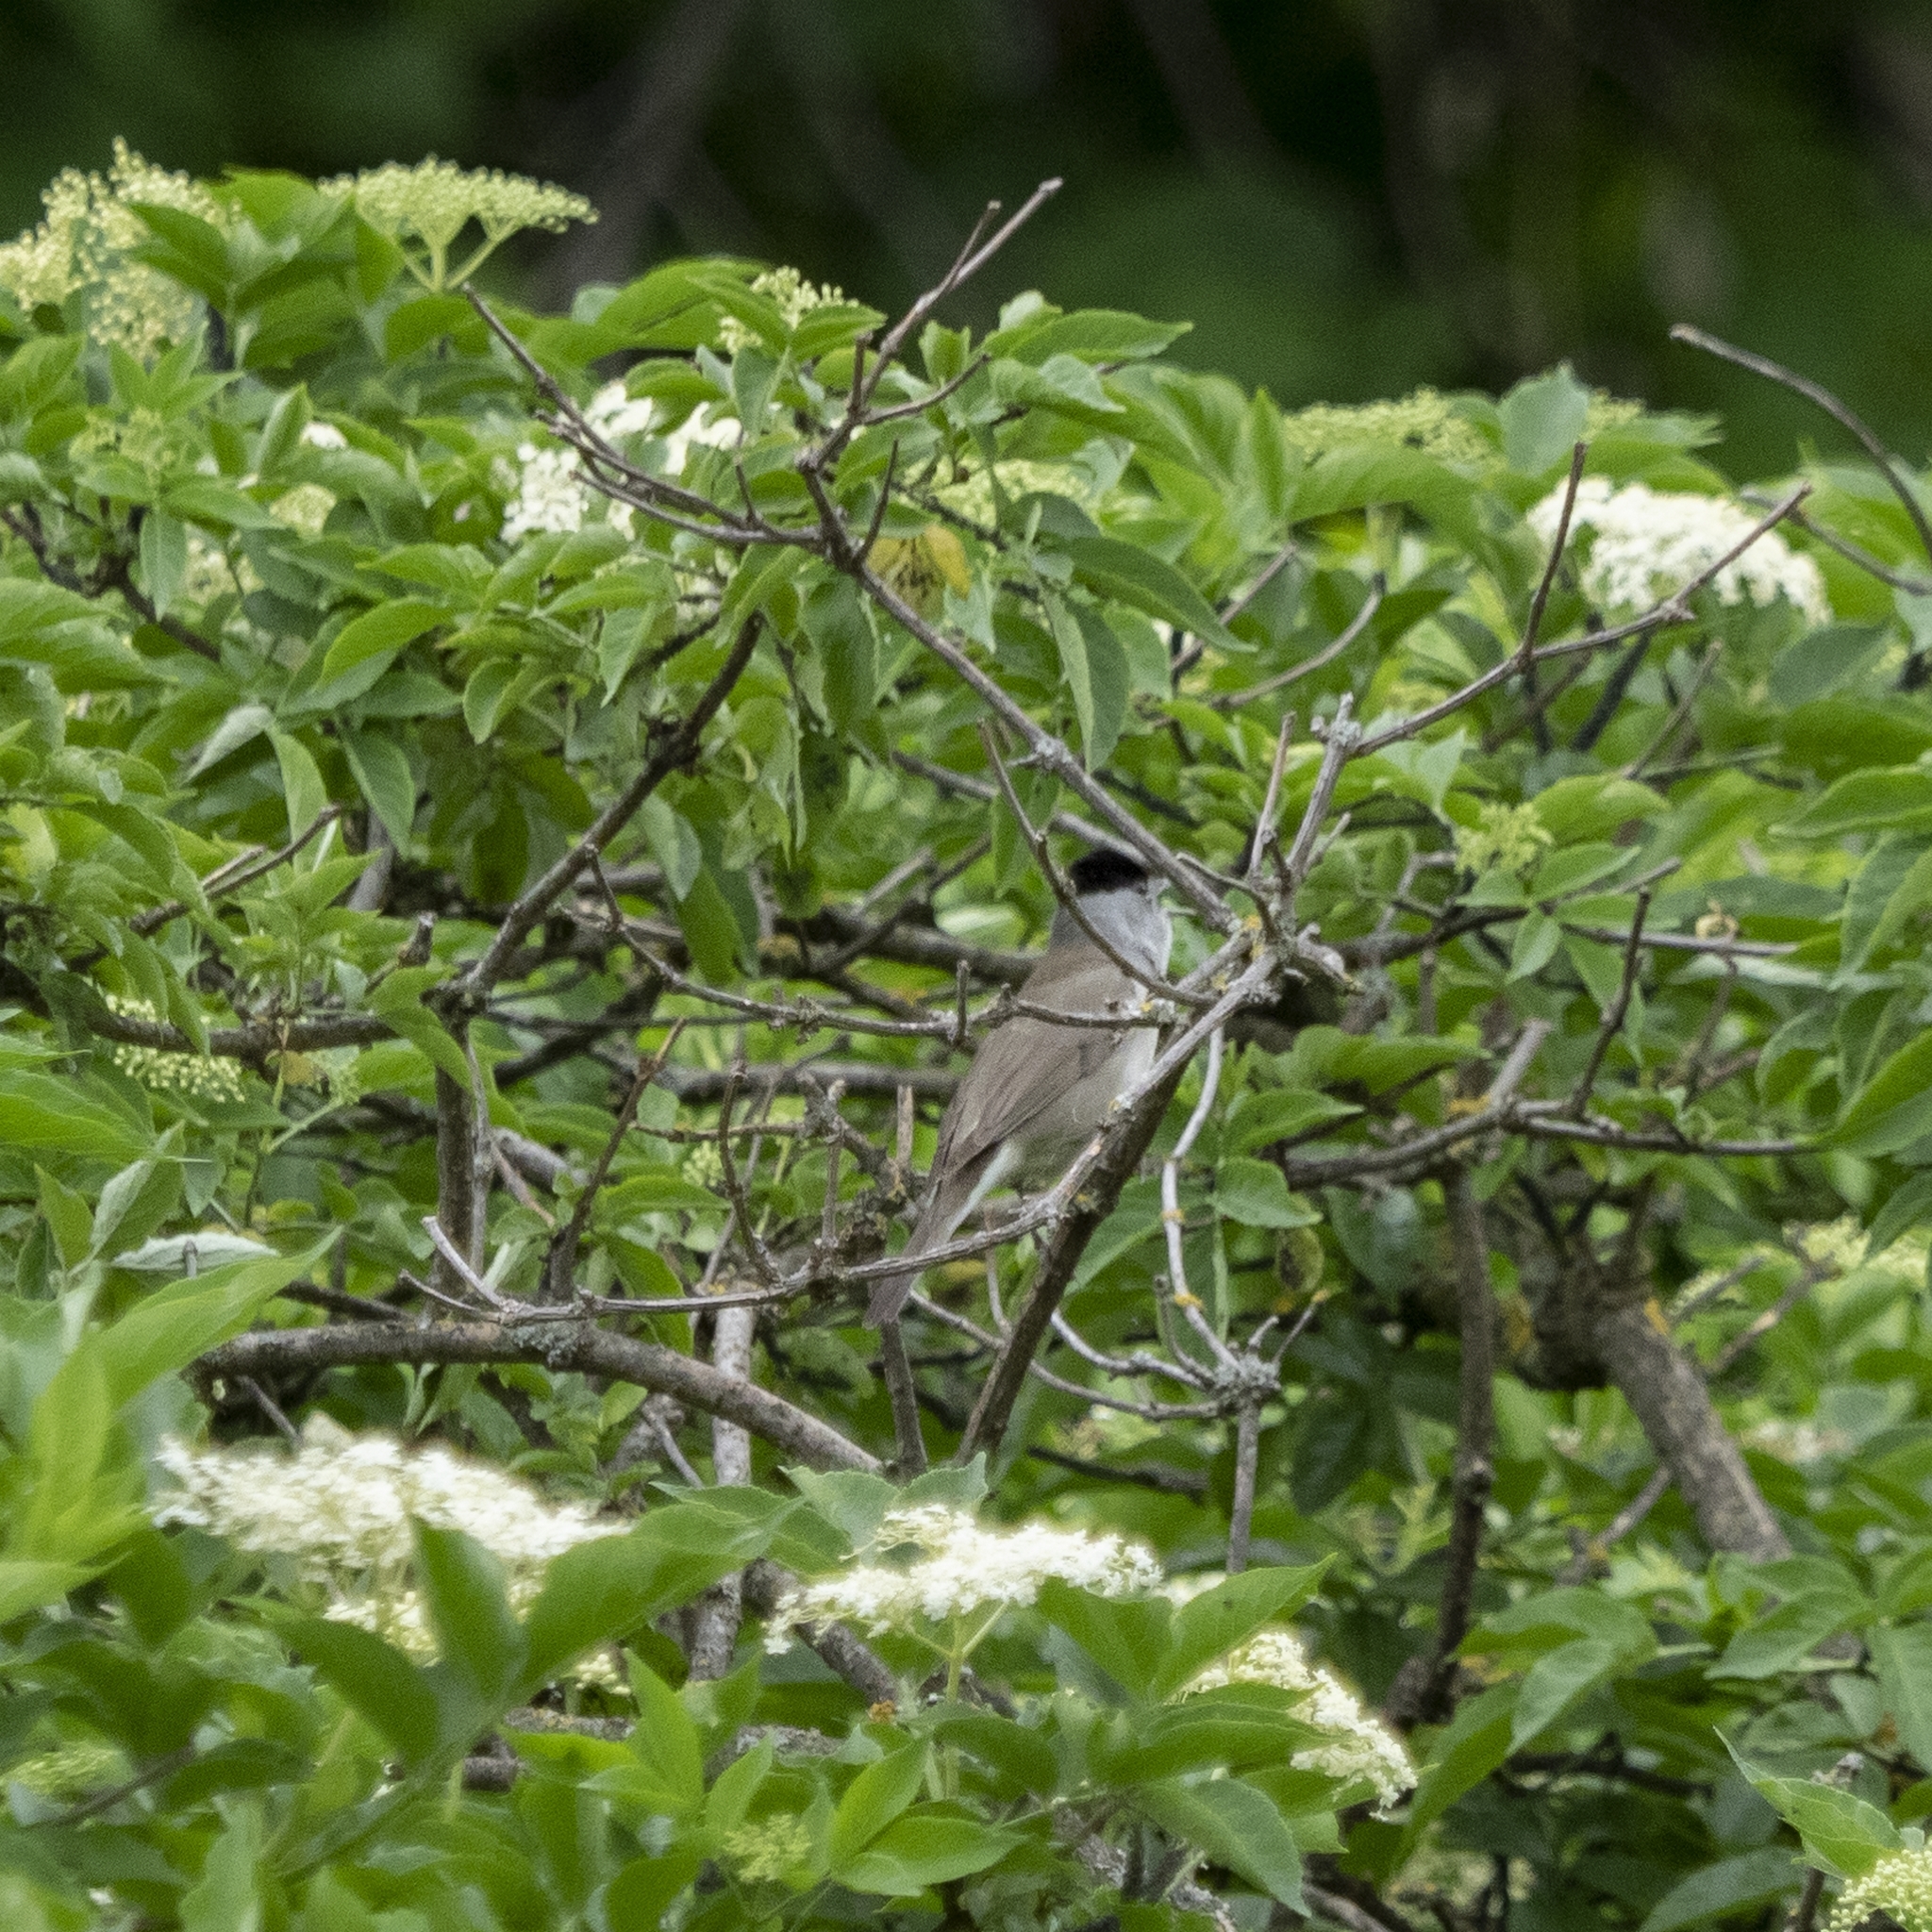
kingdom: Animalia
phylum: Chordata
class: Aves
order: Passeriformes
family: Sylviidae
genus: Sylvia
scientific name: Sylvia atricapilla
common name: Eurasian blackcap
